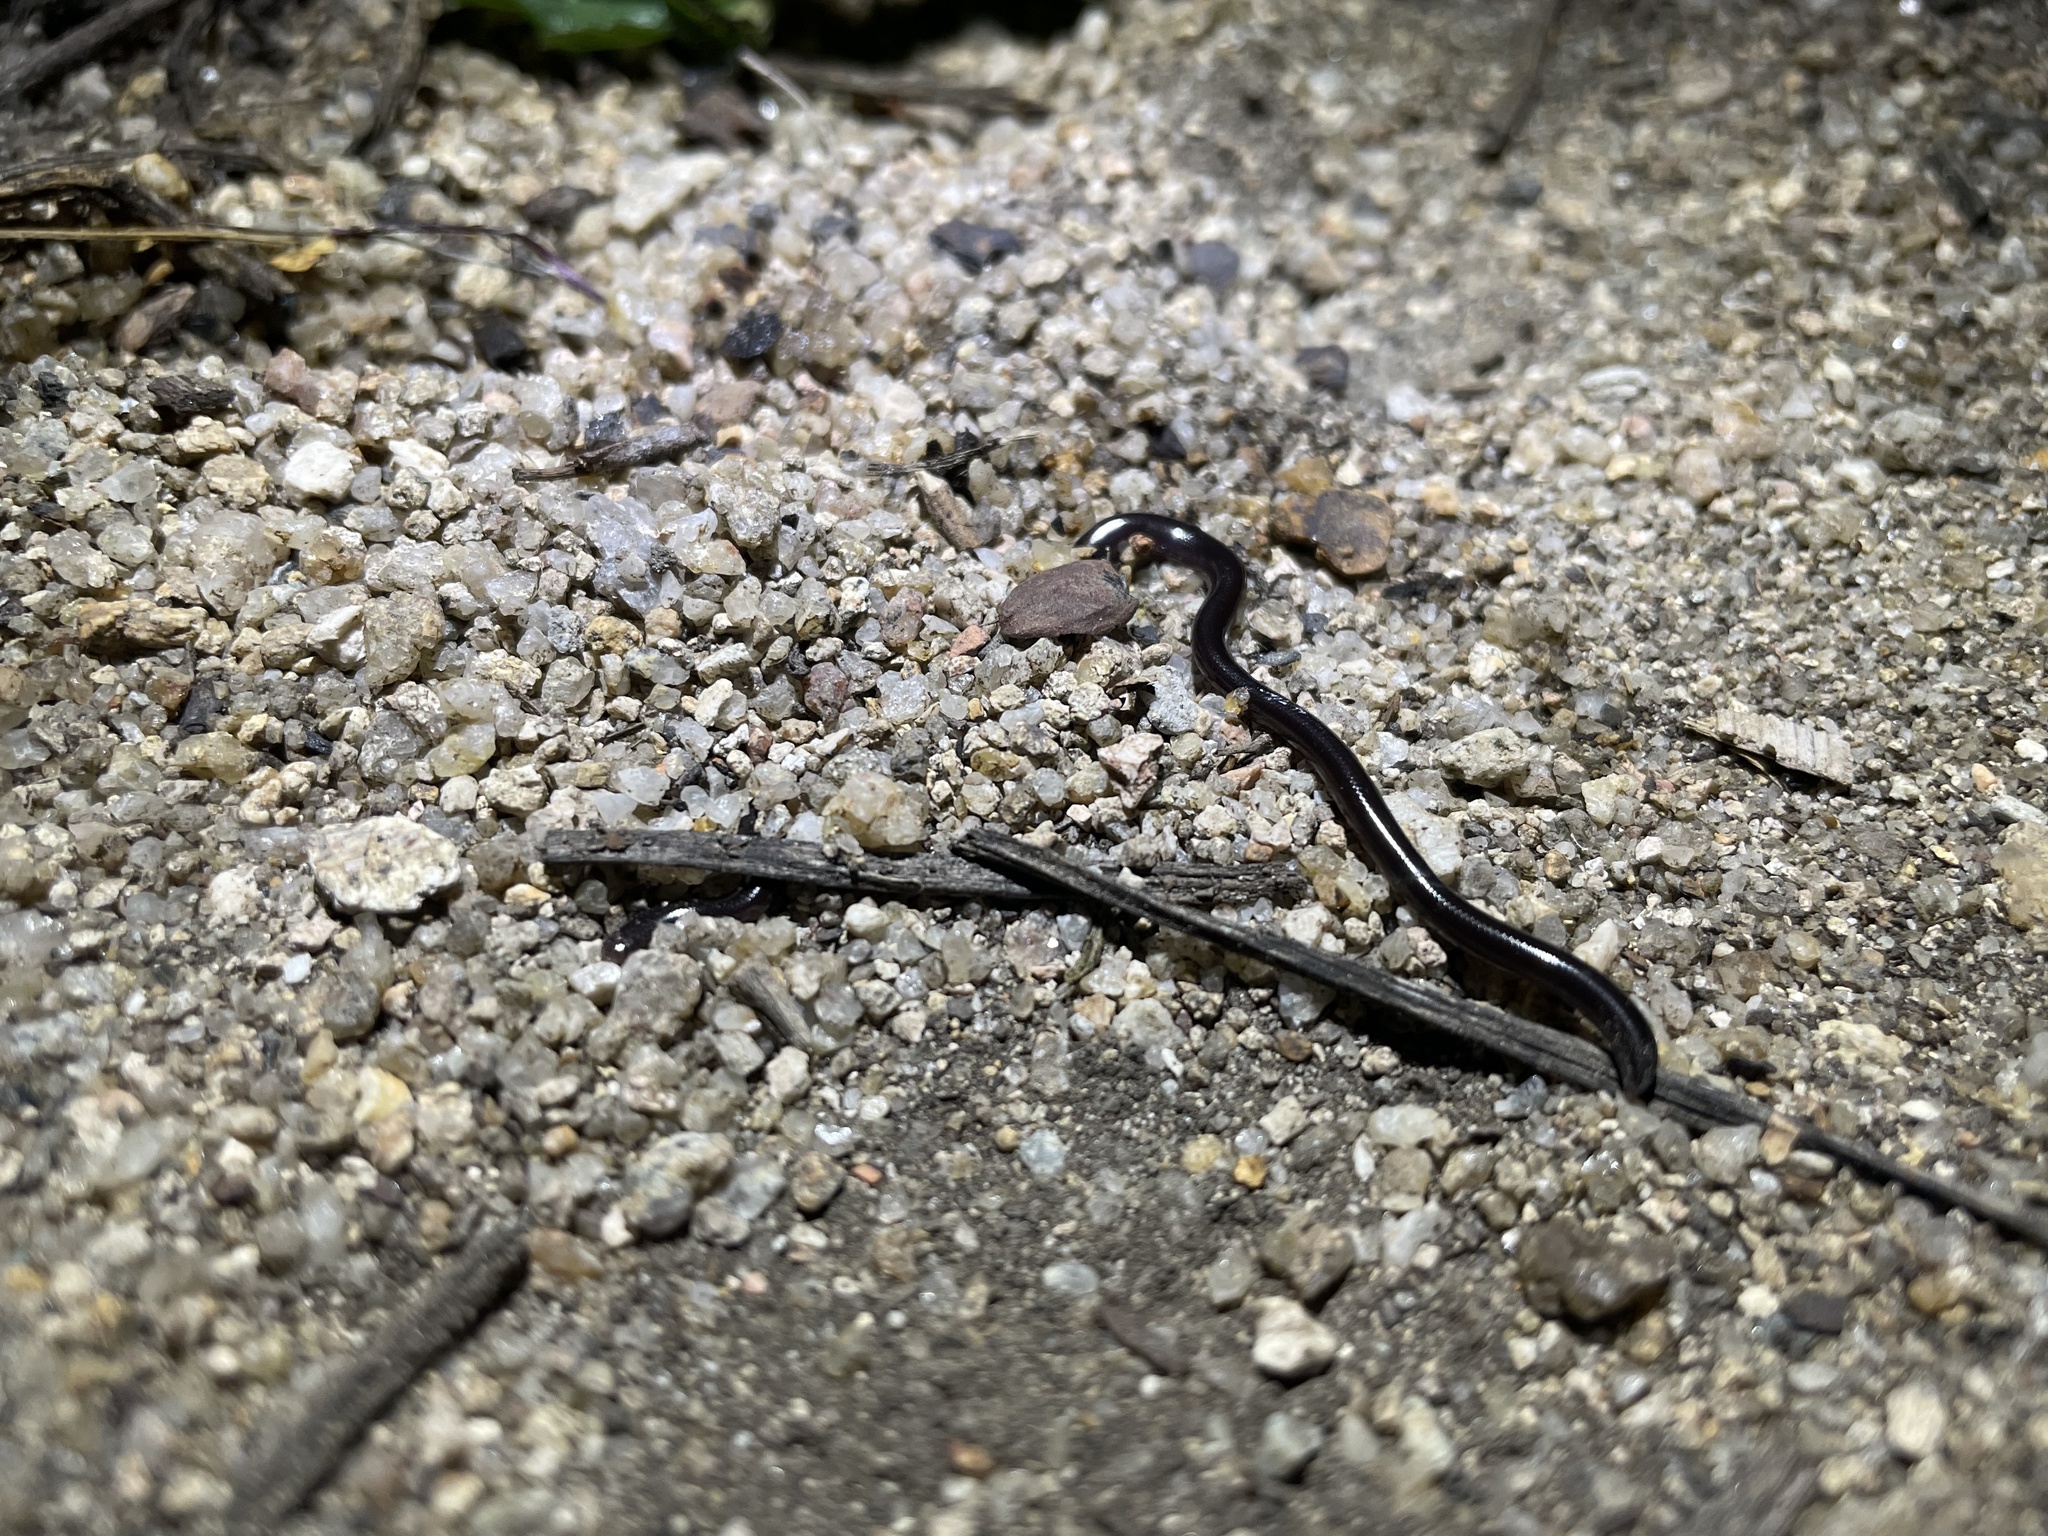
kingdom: Animalia
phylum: Chordata
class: Squamata
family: Typhlopidae
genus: Indotyphlops
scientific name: Indotyphlops braminus
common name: Brahminy blindsnake
